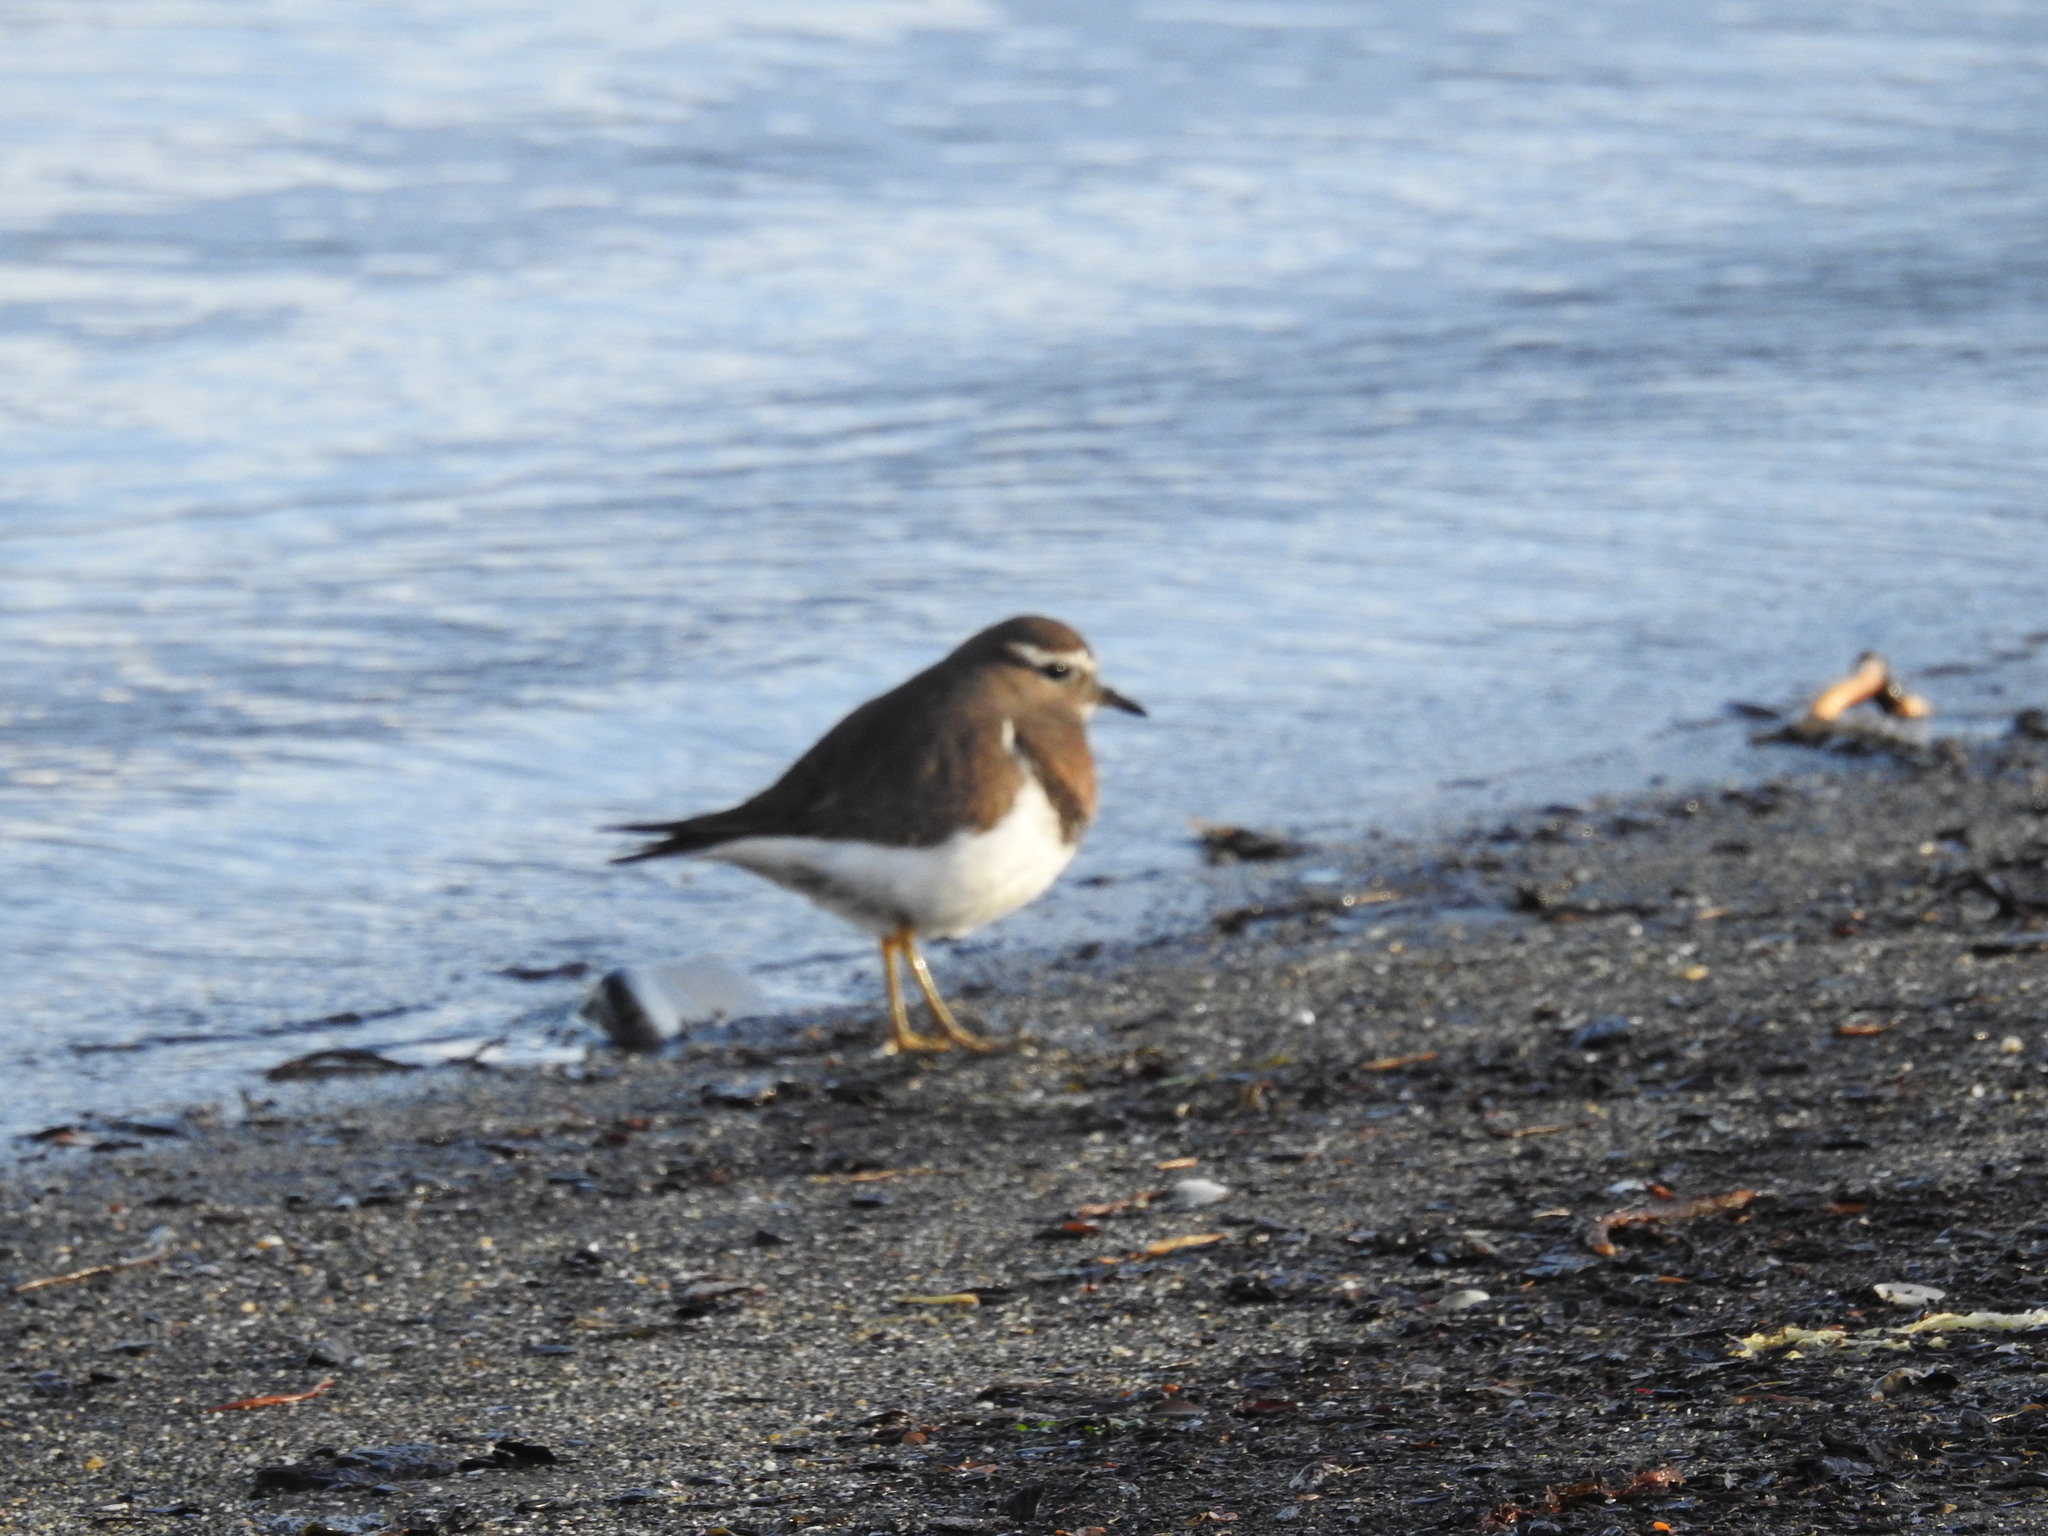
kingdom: Animalia
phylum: Chordata
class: Aves
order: Charadriiformes
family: Charadriidae
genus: Charadrius
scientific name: Charadrius modestus
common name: Rufous-chested plover
